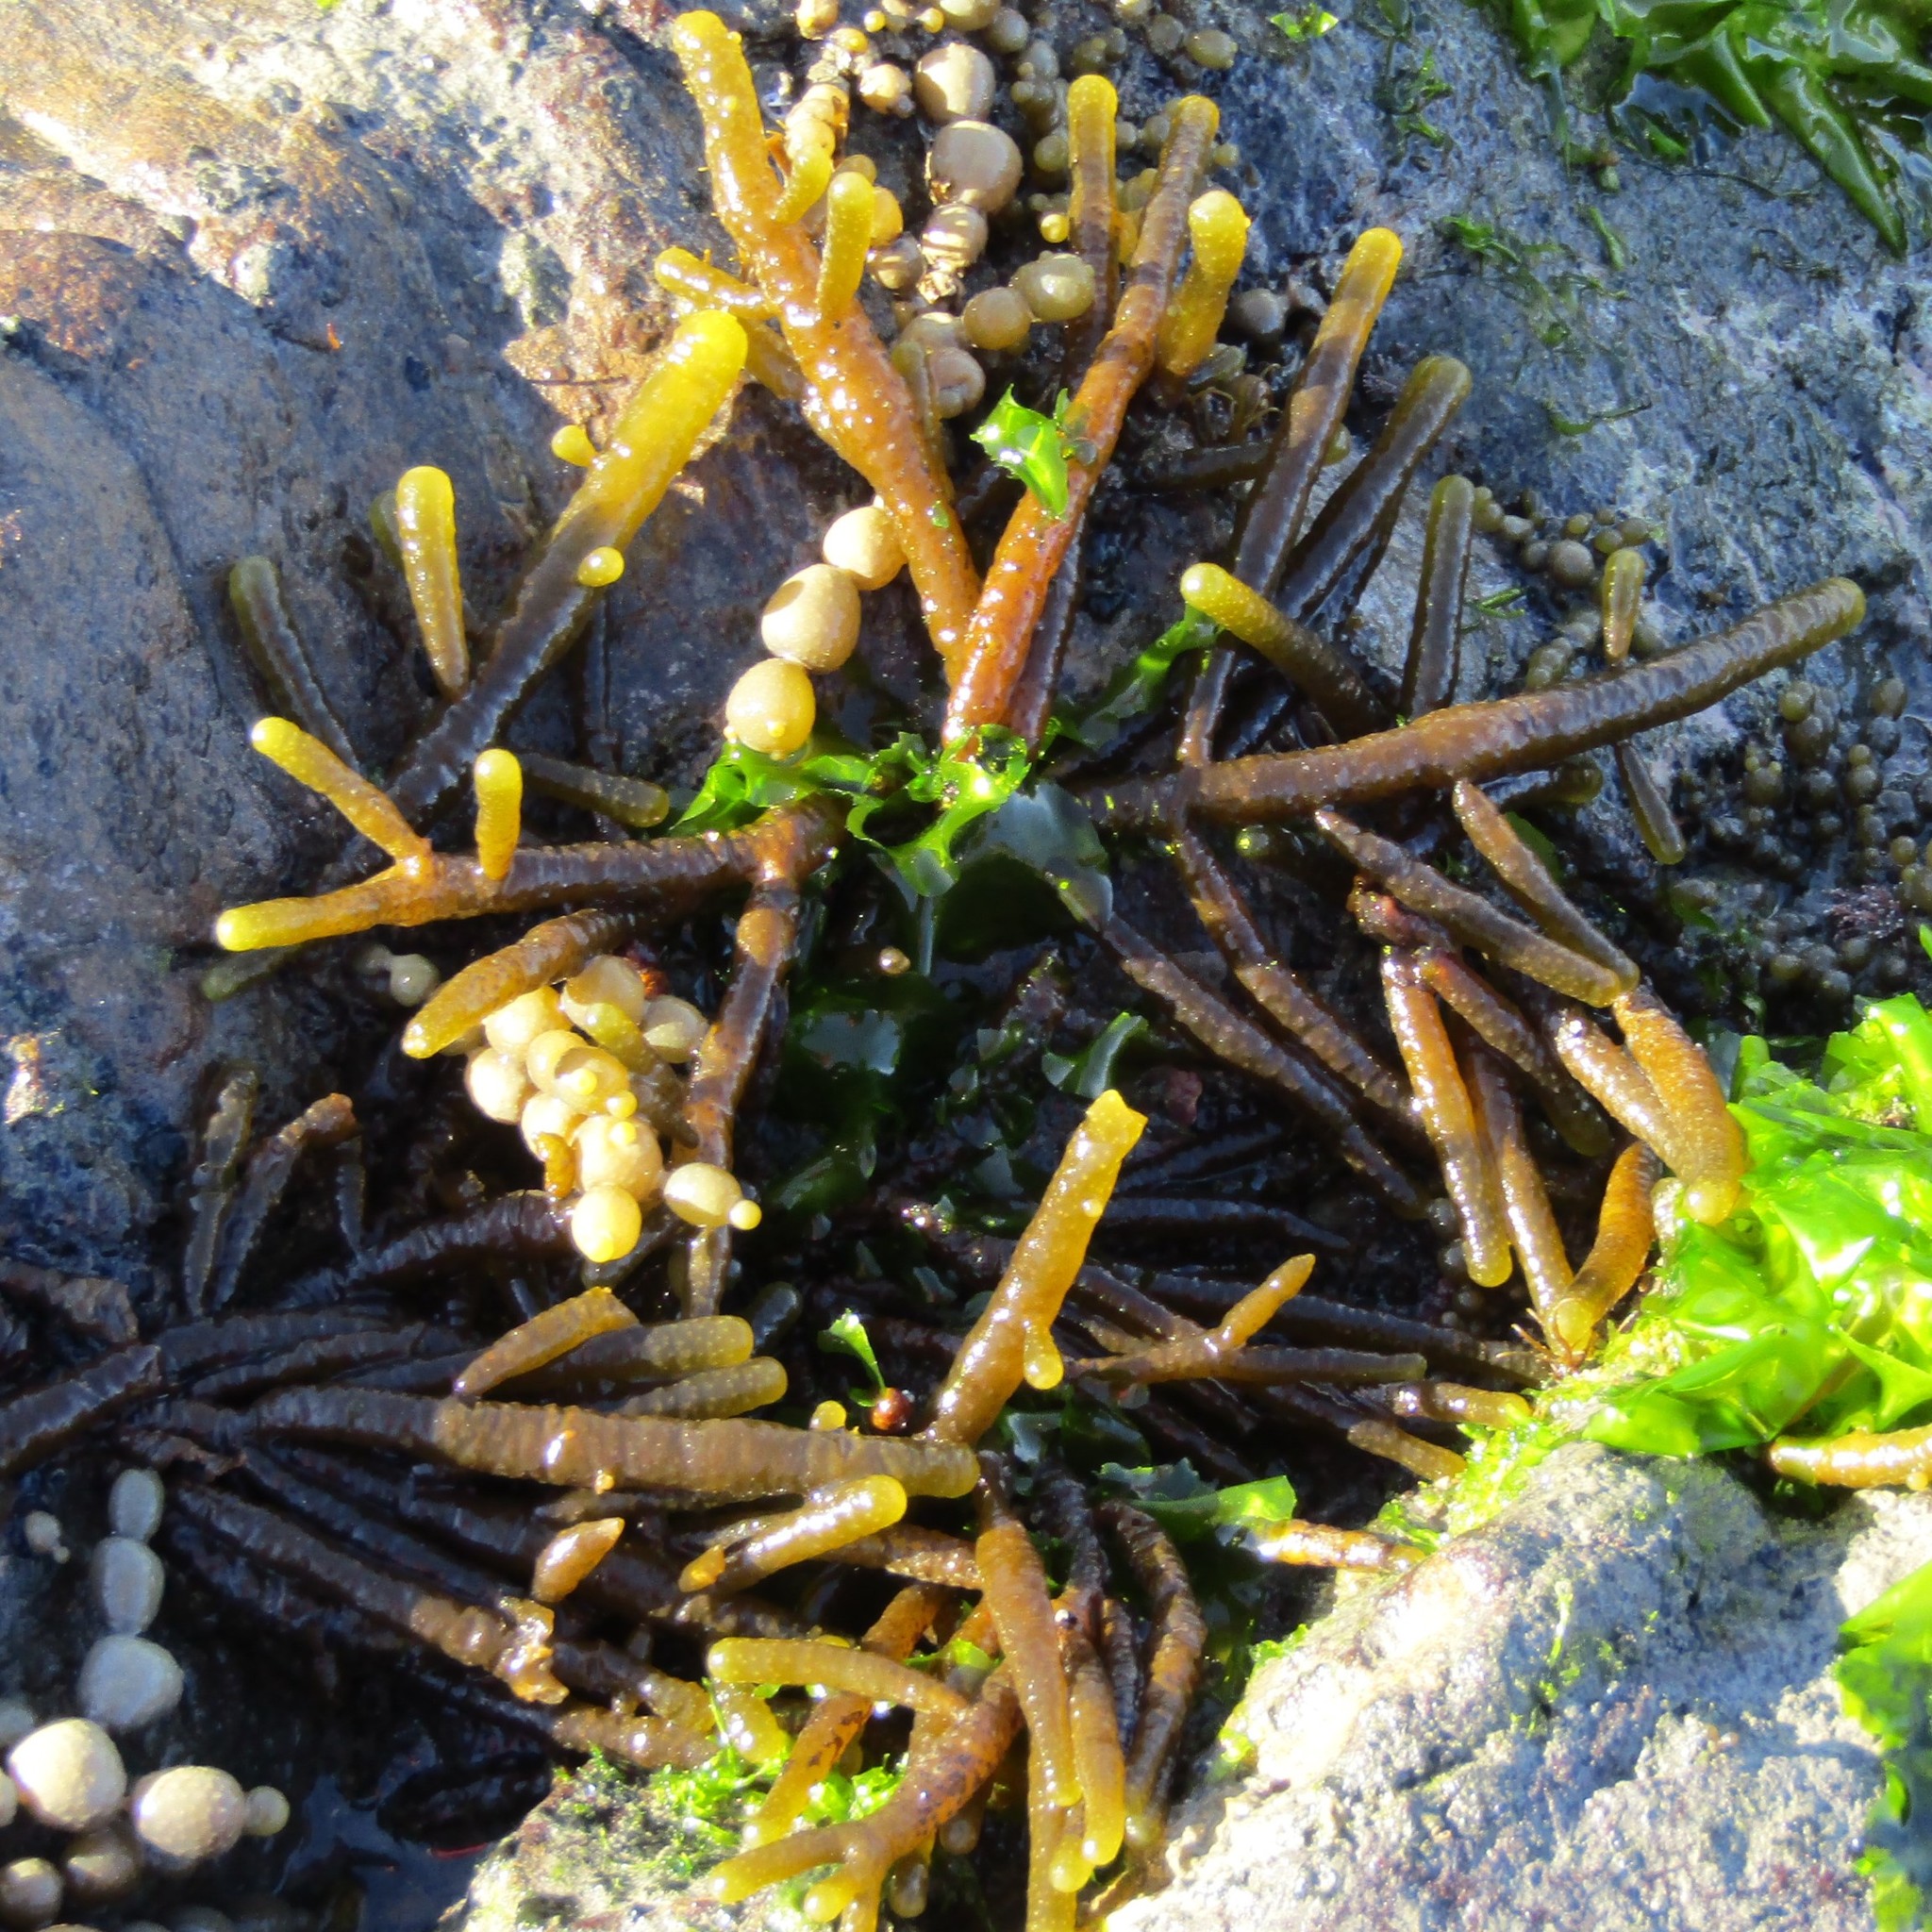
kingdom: Chromista
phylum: Ochrophyta
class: Phaeophyceae
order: Scytothamnales
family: Splachnidiaceae
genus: Splachnidium
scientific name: Splachnidium rugosum
